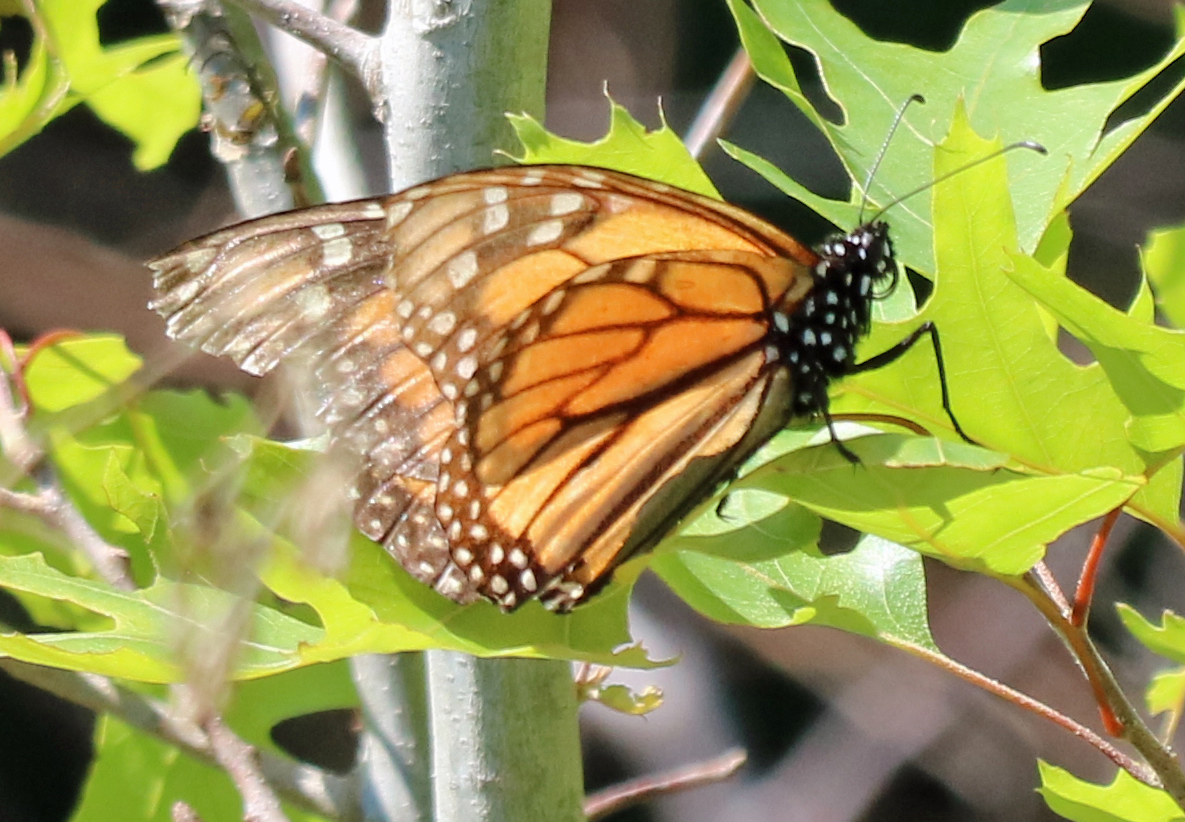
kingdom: Animalia
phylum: Arthropoda
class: Insecta
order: Lepidoptera
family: Nymphalidae
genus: Danaus
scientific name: Danaus plexippus
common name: Monarch
